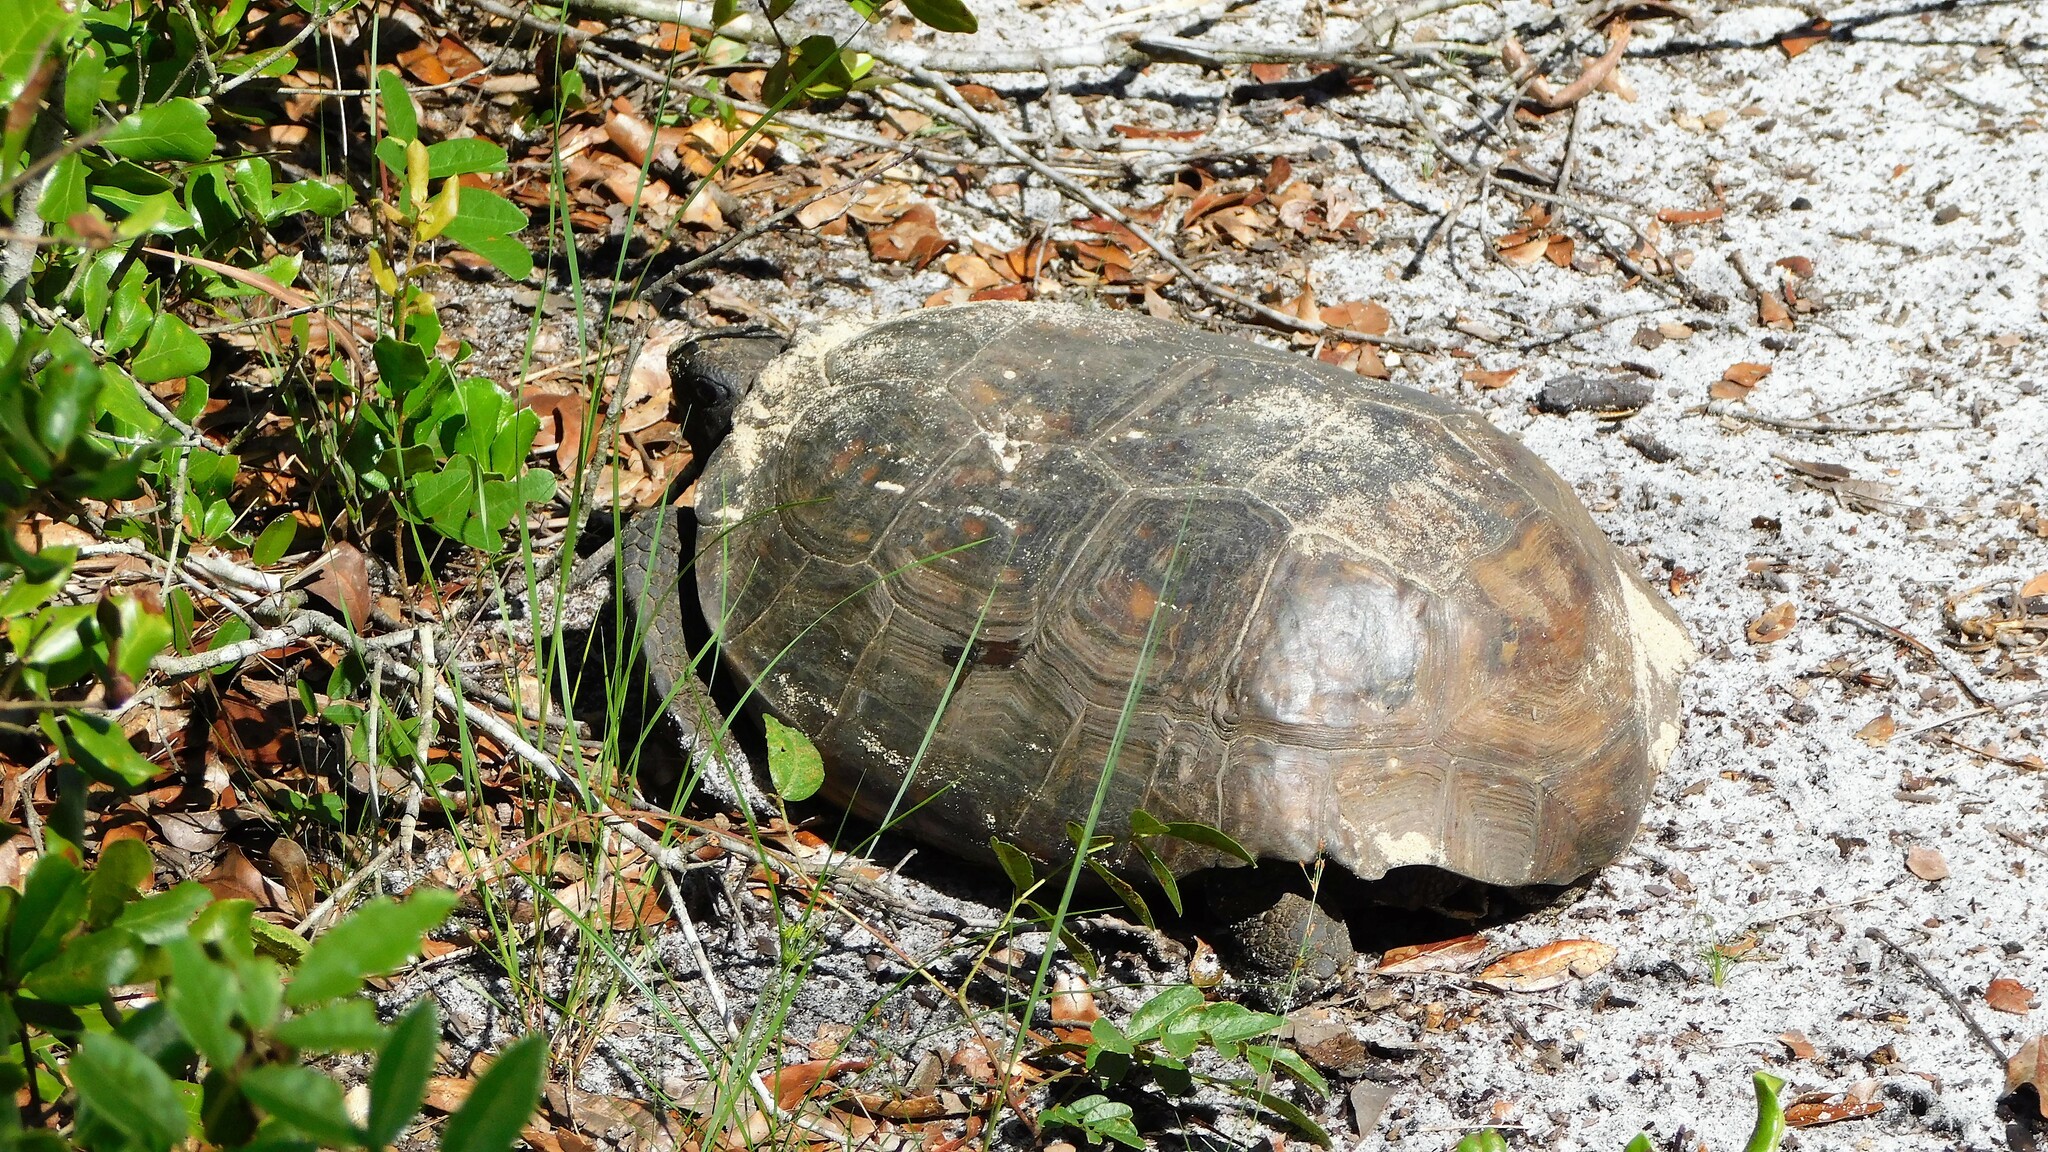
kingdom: Animalia
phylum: Chordata
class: Testudines
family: Testudinidae
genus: Gopherus
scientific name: Gopherus polyphemus
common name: Florida gopher tortoise
